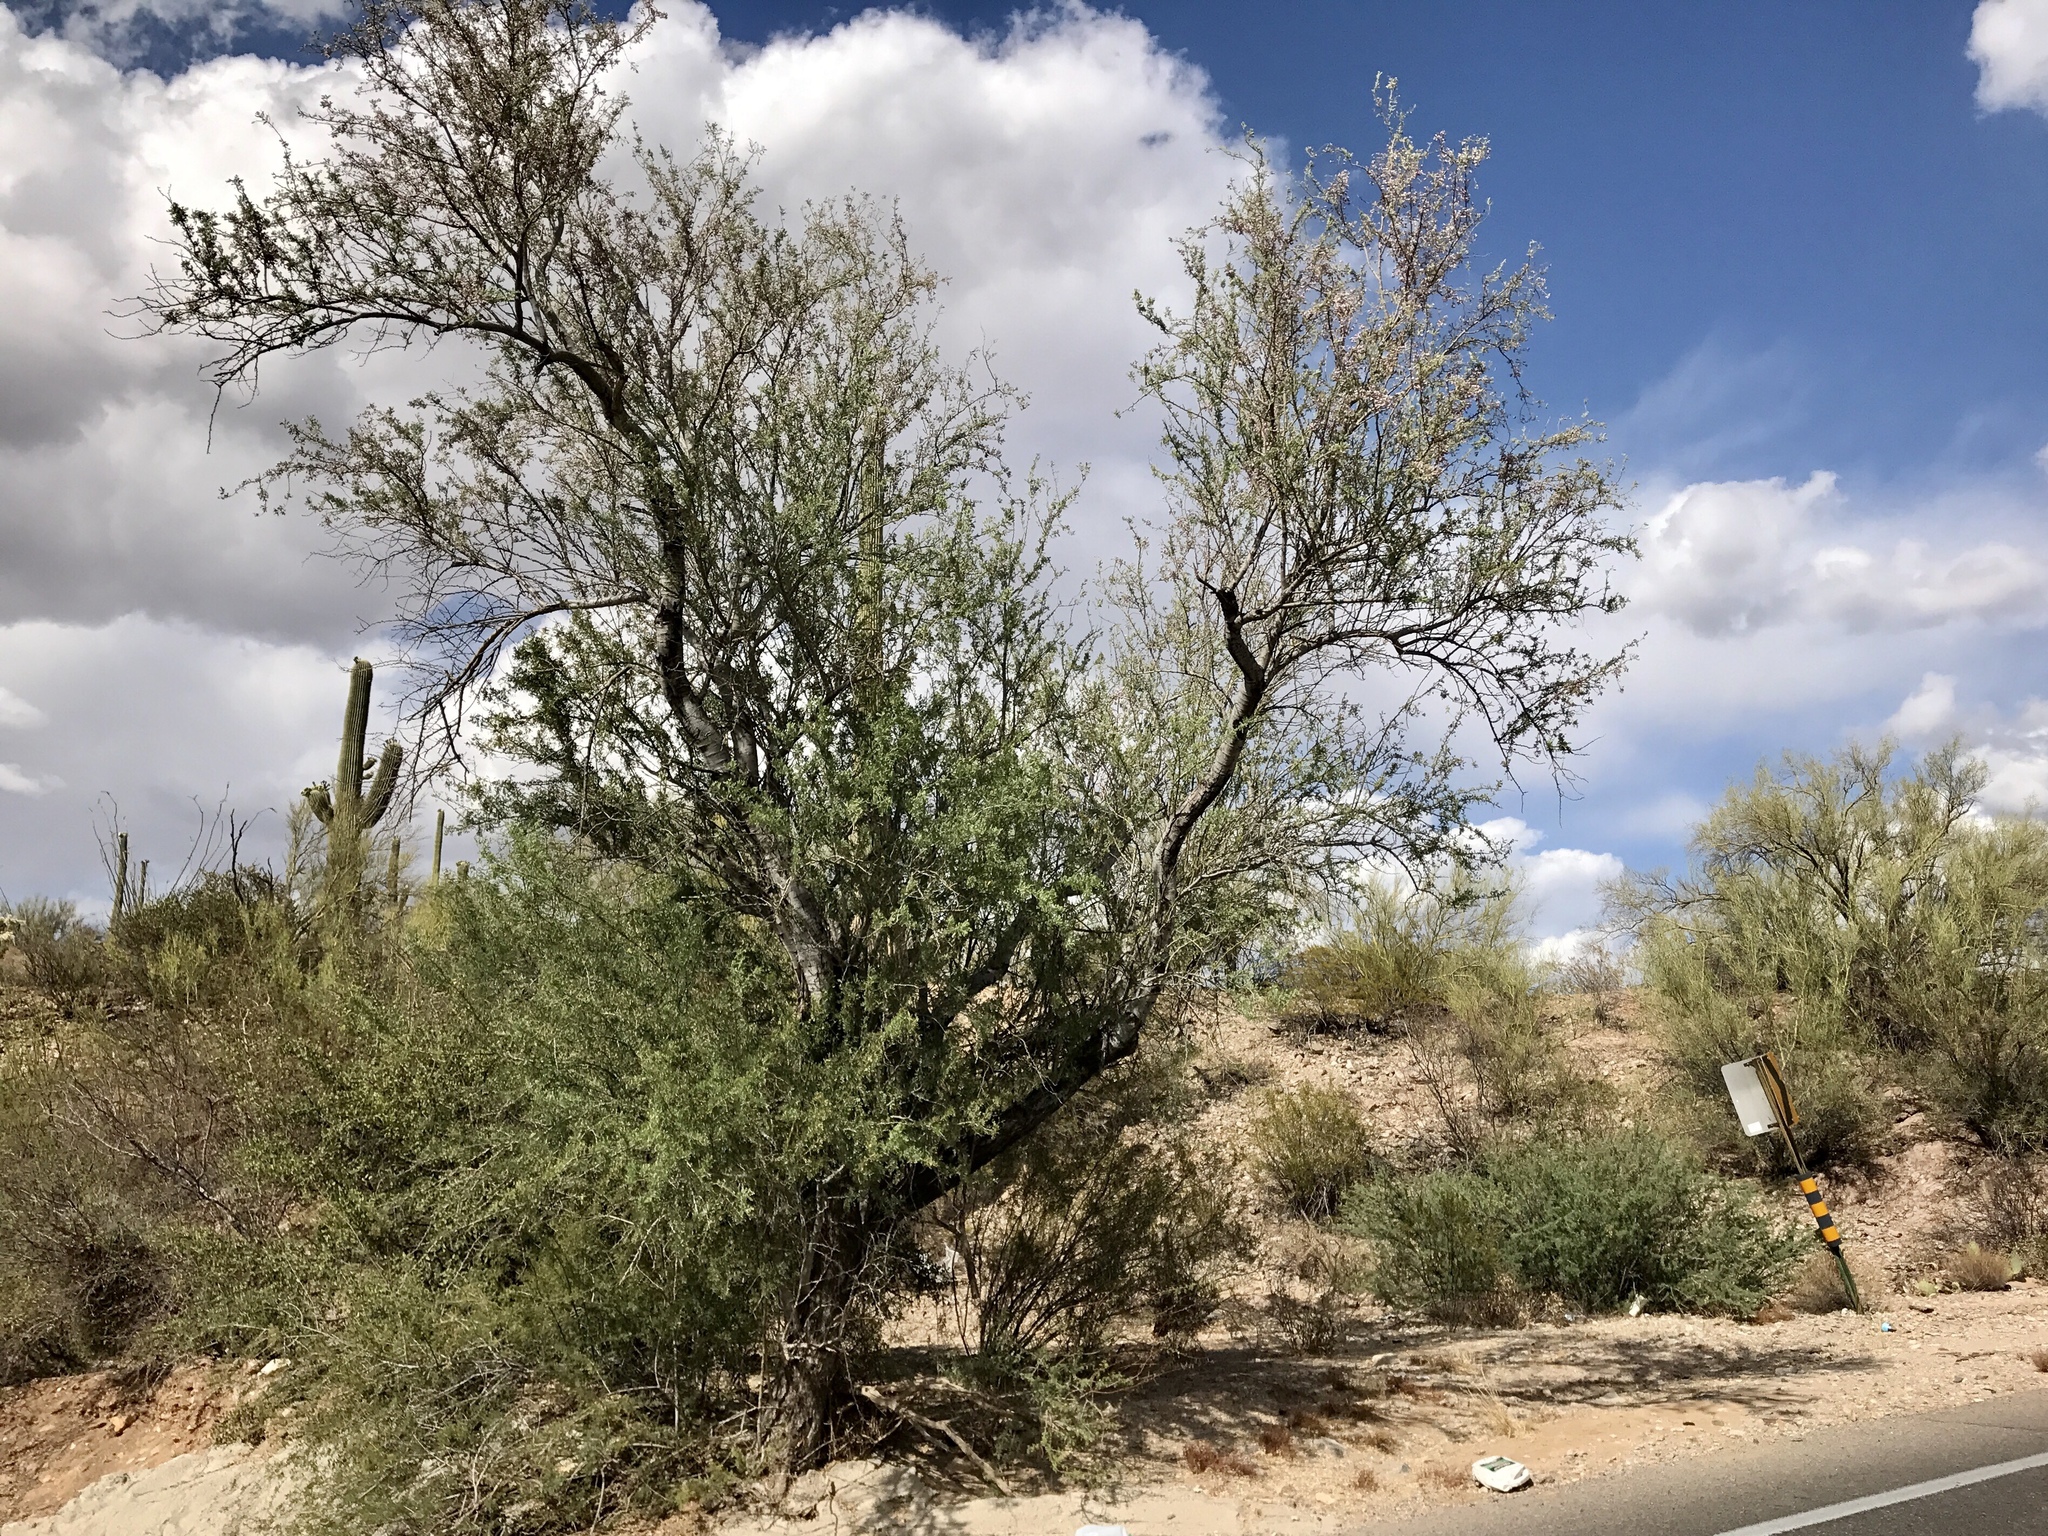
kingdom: Plantae
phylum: Tracheophyta
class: Magnoliopsida
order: Fabales
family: Fabaceae
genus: Olneya
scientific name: Olneya tesota
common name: Desert ironwood
